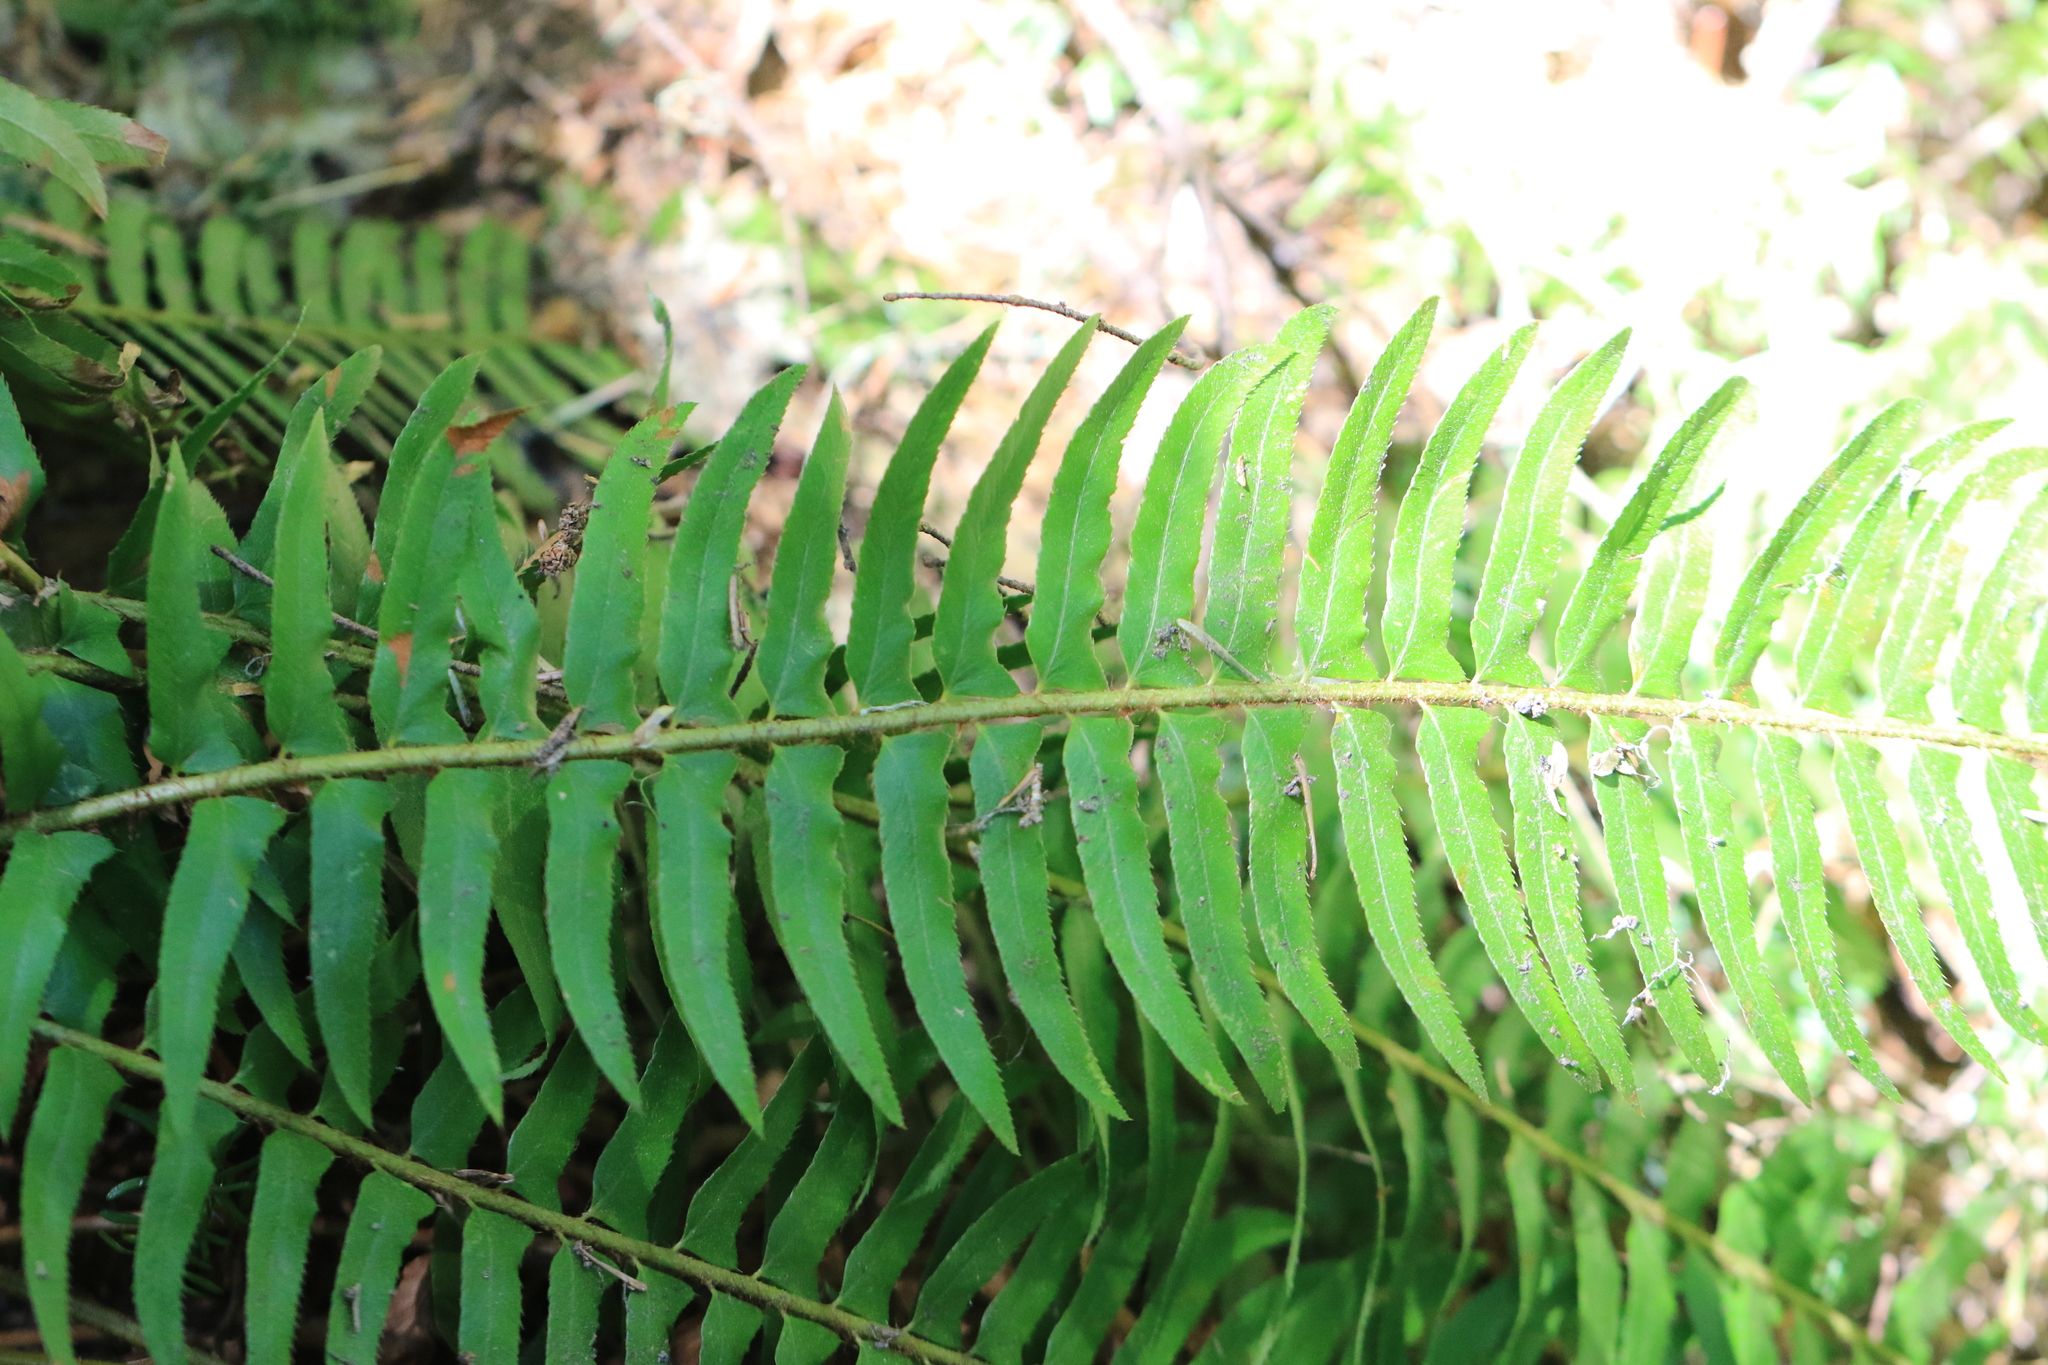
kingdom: Plantae
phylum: Tracheophyta
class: Polypodiopsida
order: Polypodiales
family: Dryopteridaceae
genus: Polystichum
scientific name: Polystichum munitum
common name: Western sword-fern
